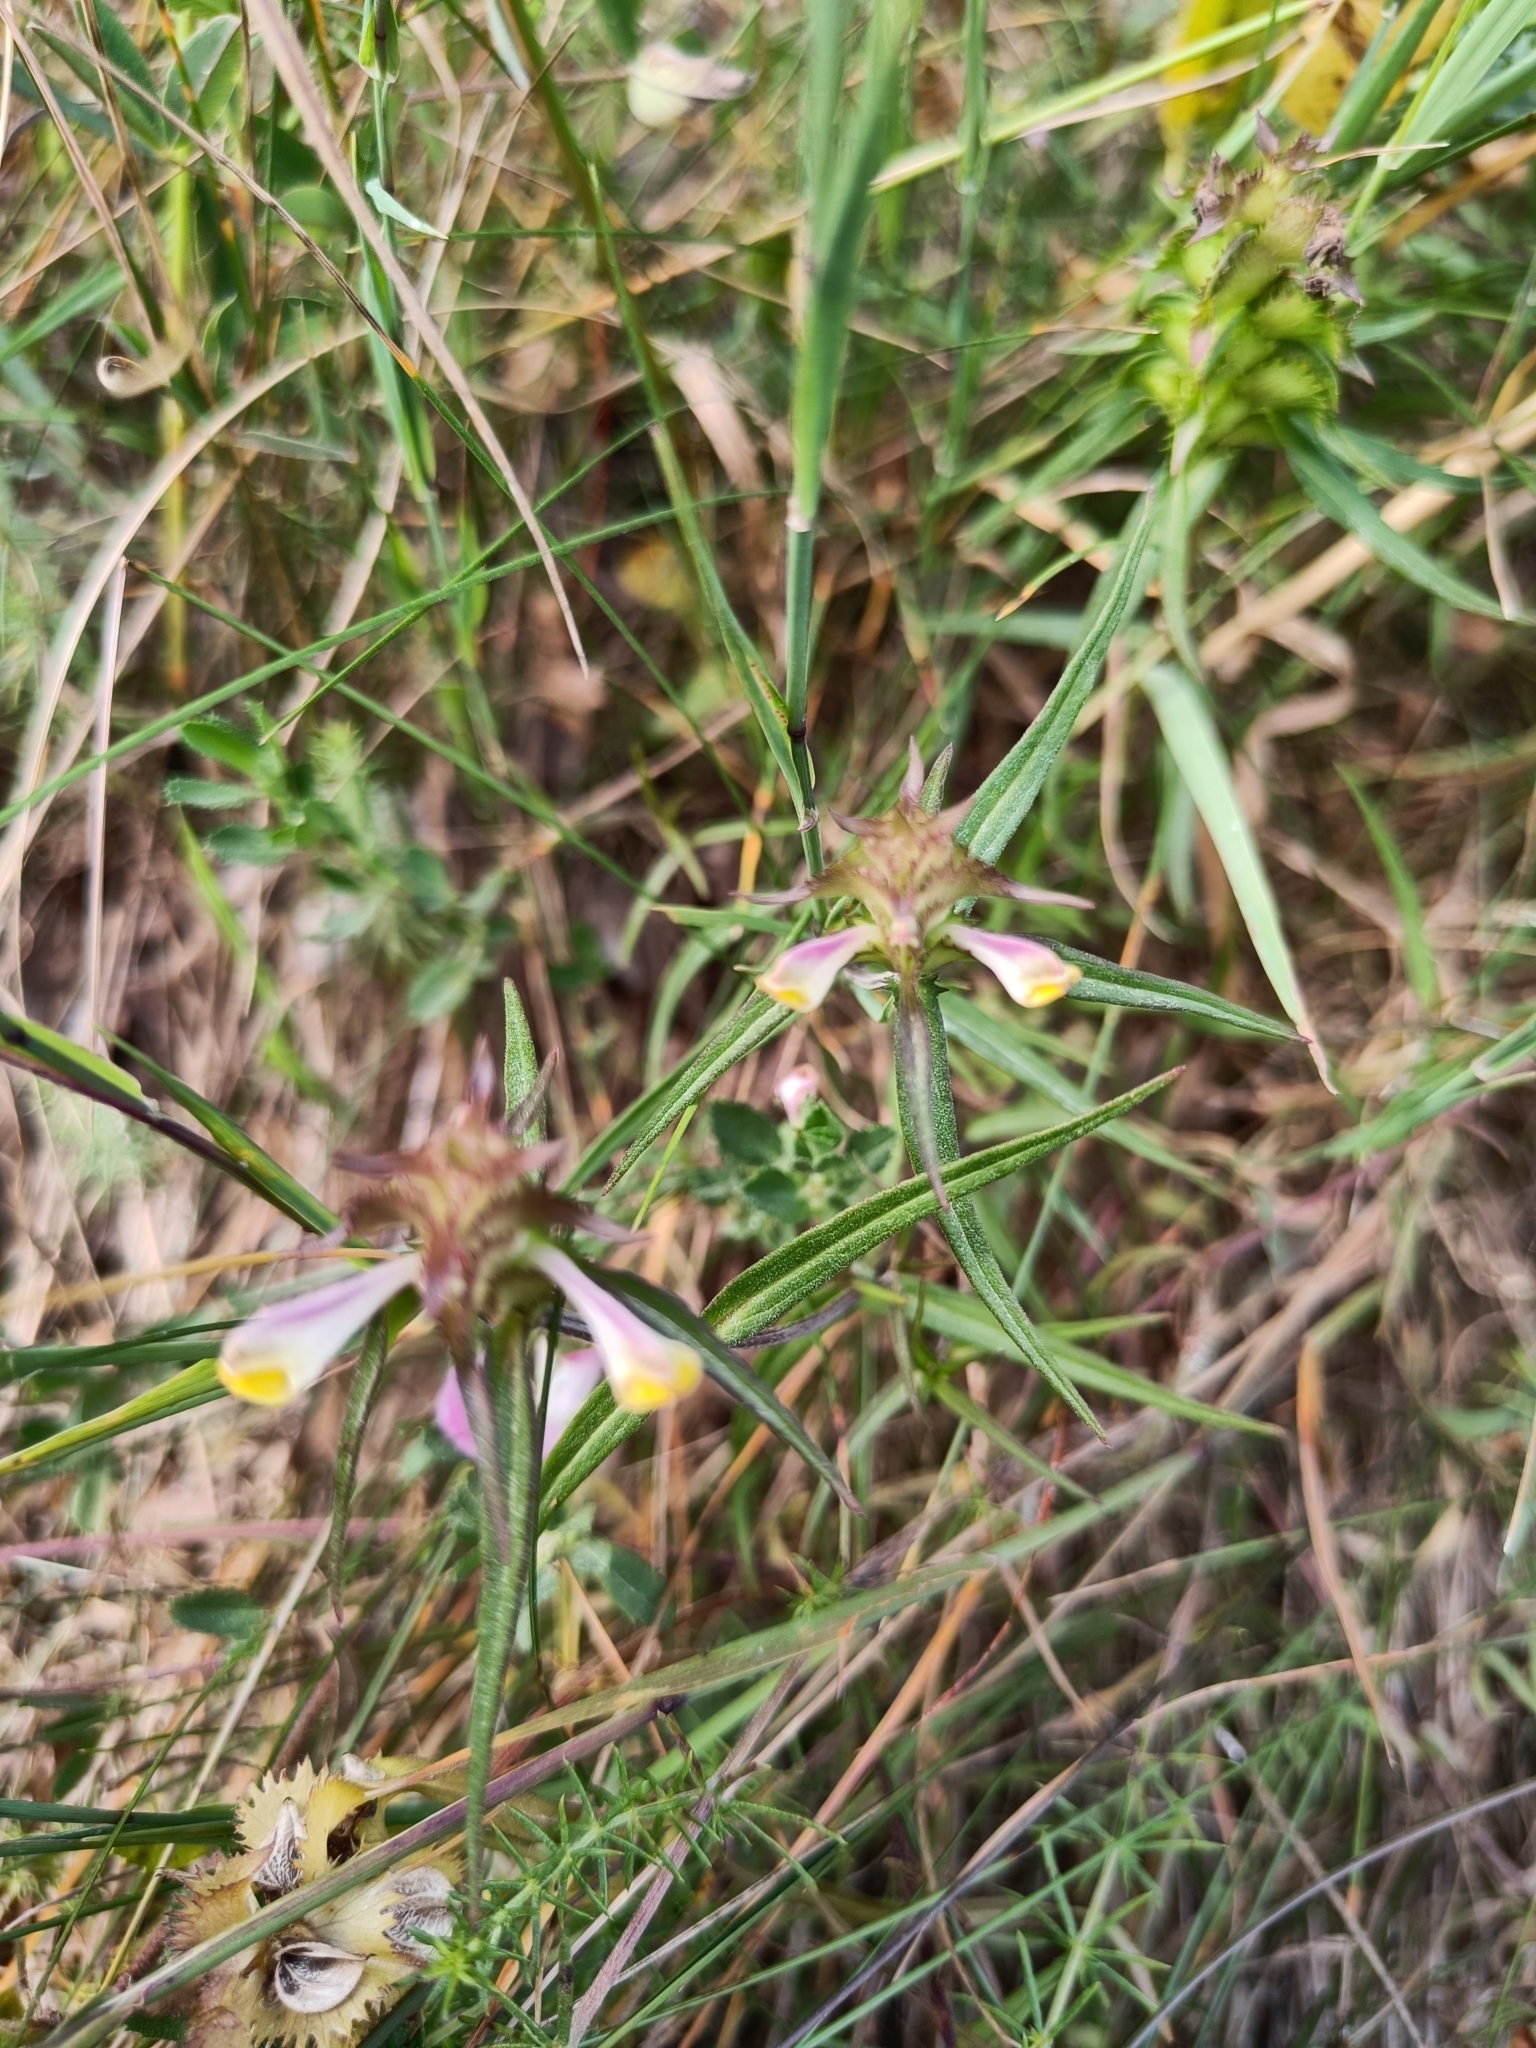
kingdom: Plantae
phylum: Tracheophyta
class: Magnoliopsida
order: Lamiales
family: Orobanchaceae
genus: Melampyrum
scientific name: Melampyrum cristatum
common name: Crested cow-wheat
